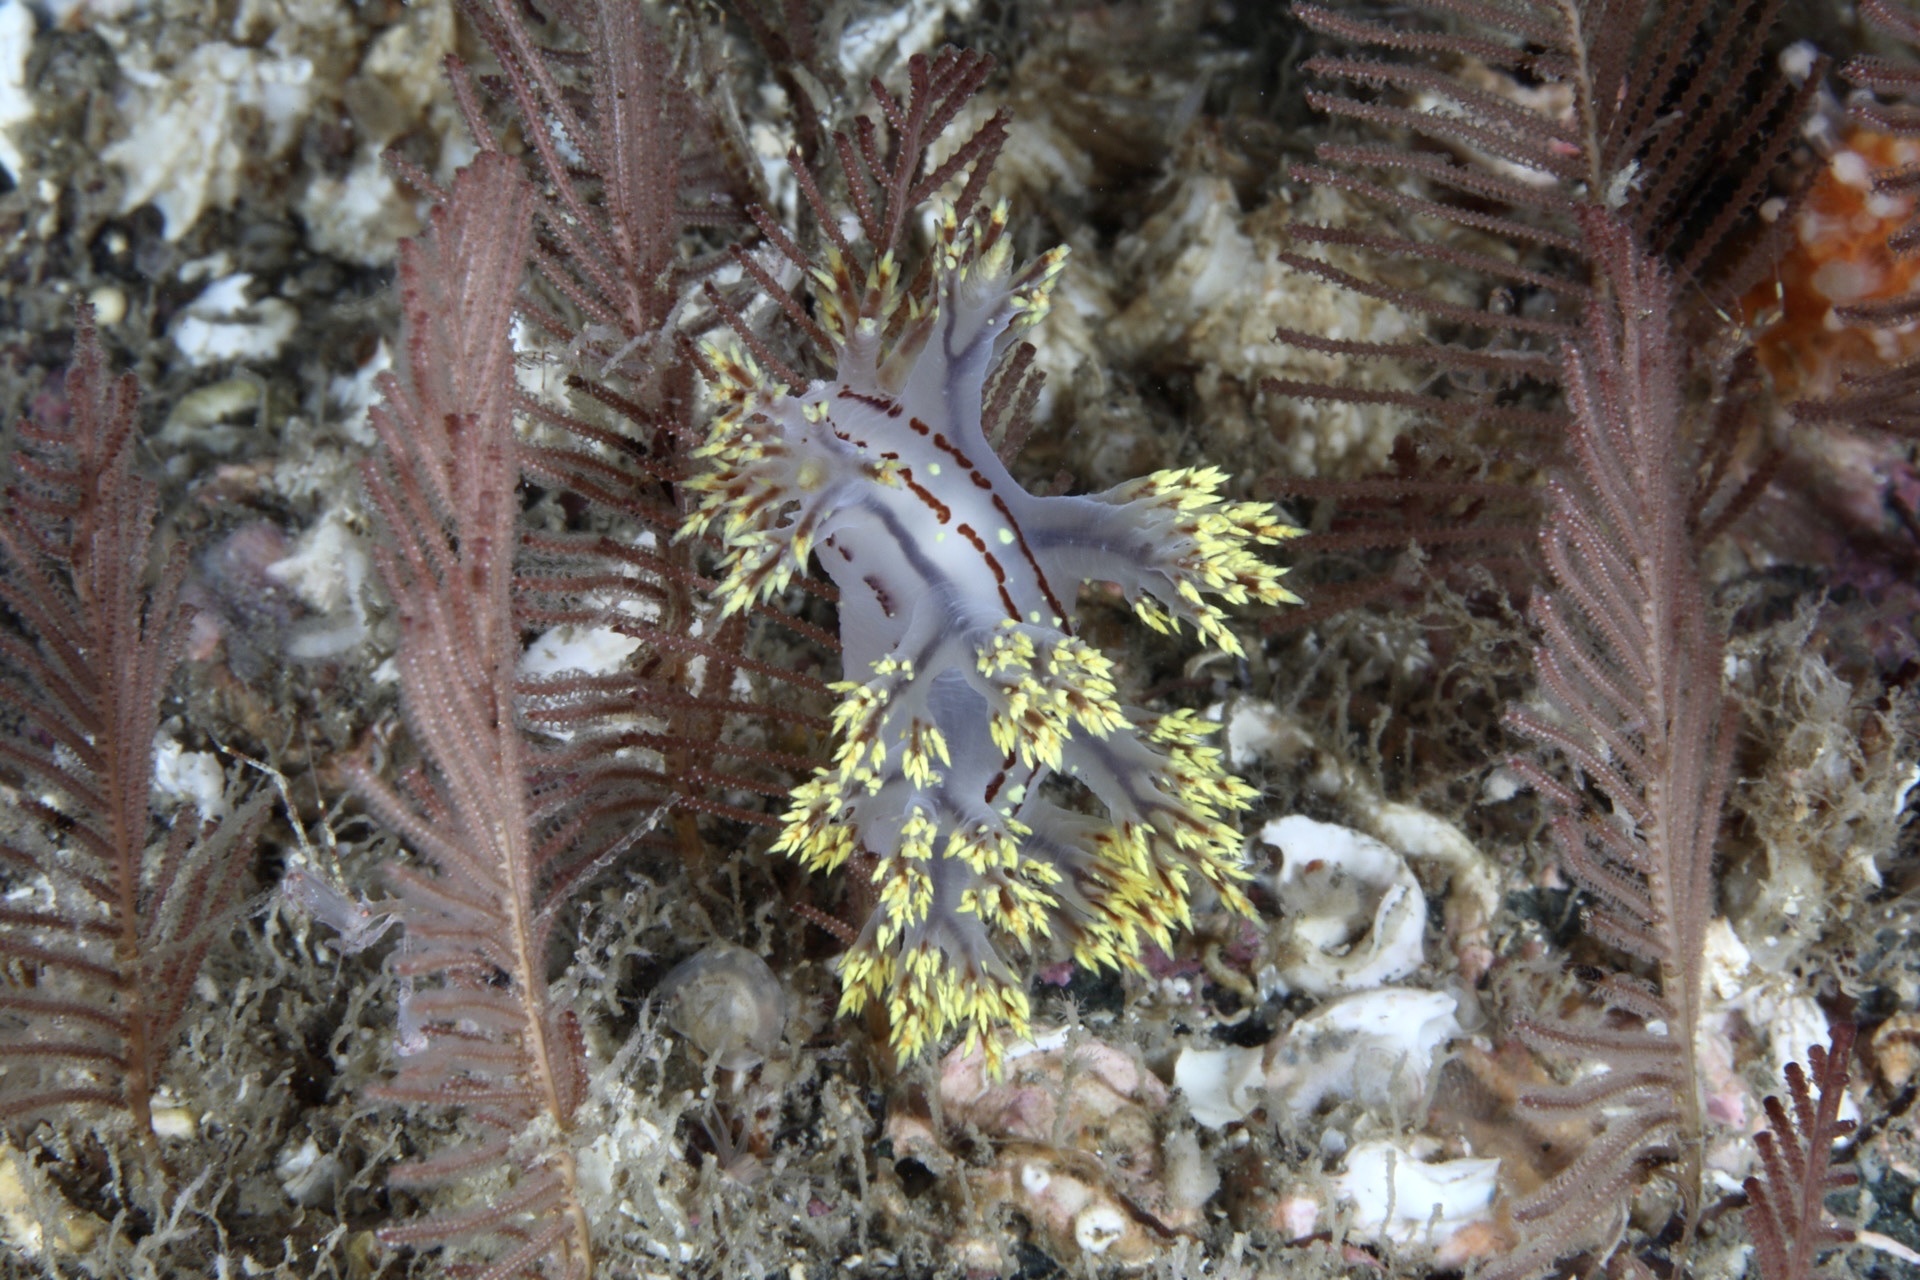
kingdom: Animalia
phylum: Mollusca
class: Gastropoda
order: Nudibranchia
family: Dendronotidae
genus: Dendronotus
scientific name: Dendronotus yrjargul
